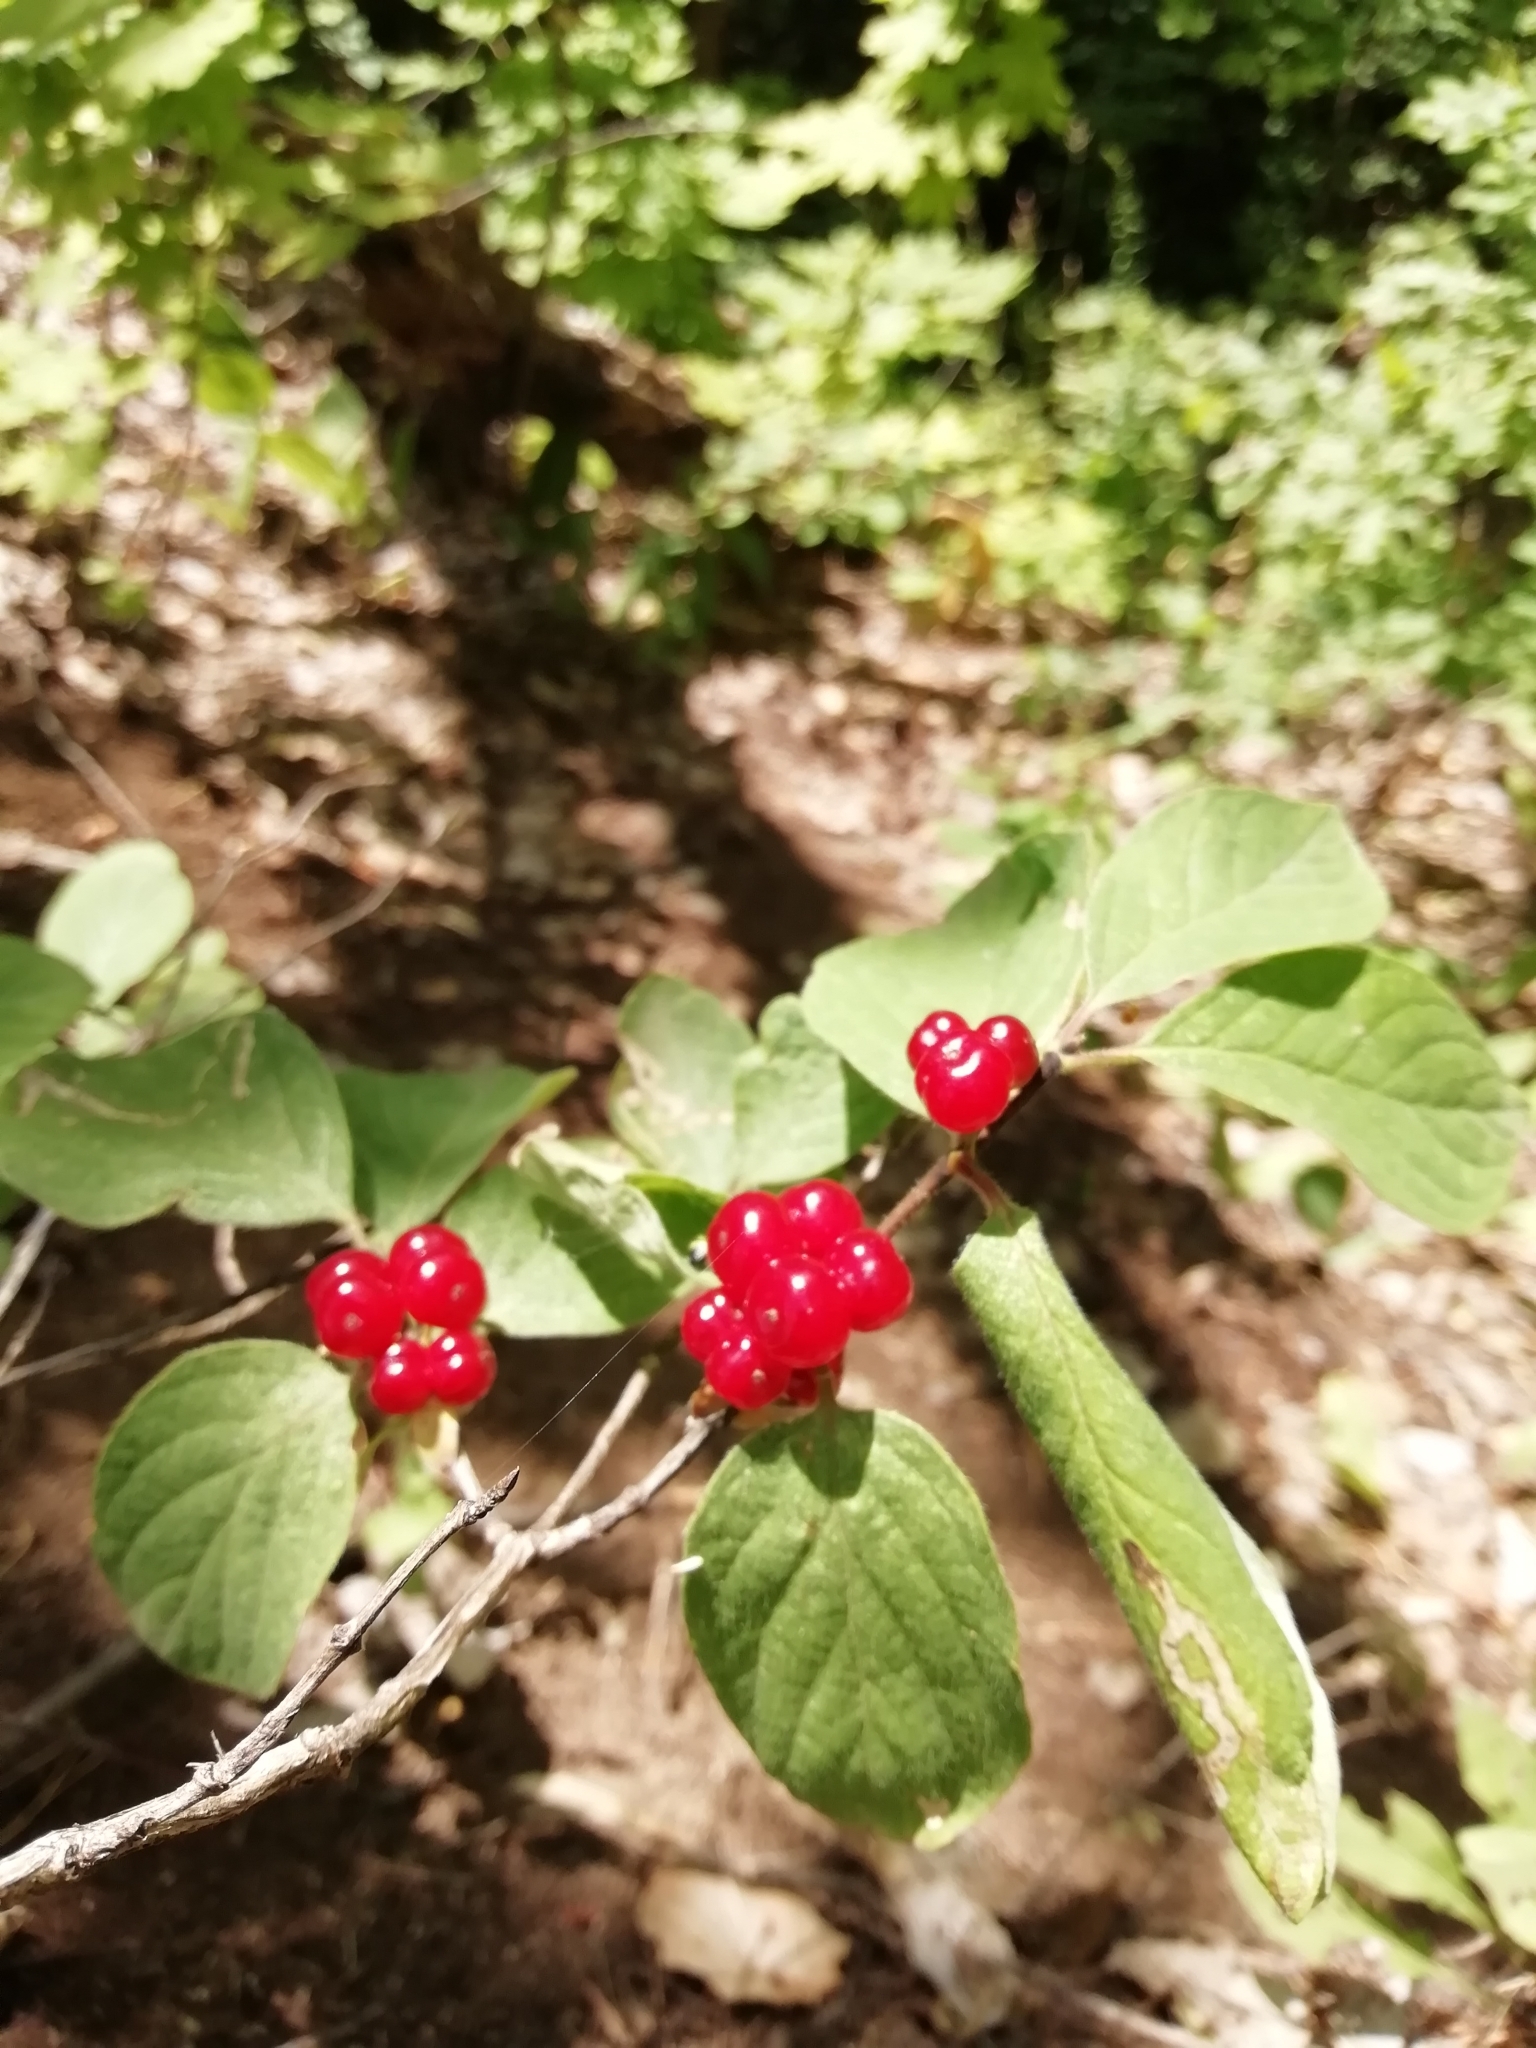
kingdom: Plantae
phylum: Tracheophyta
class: Magnoliopsida
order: Dipsacales
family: Caprifoliaceae
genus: Lonicera
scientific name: Lonicera xylosteum
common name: Fly honeysuckle
